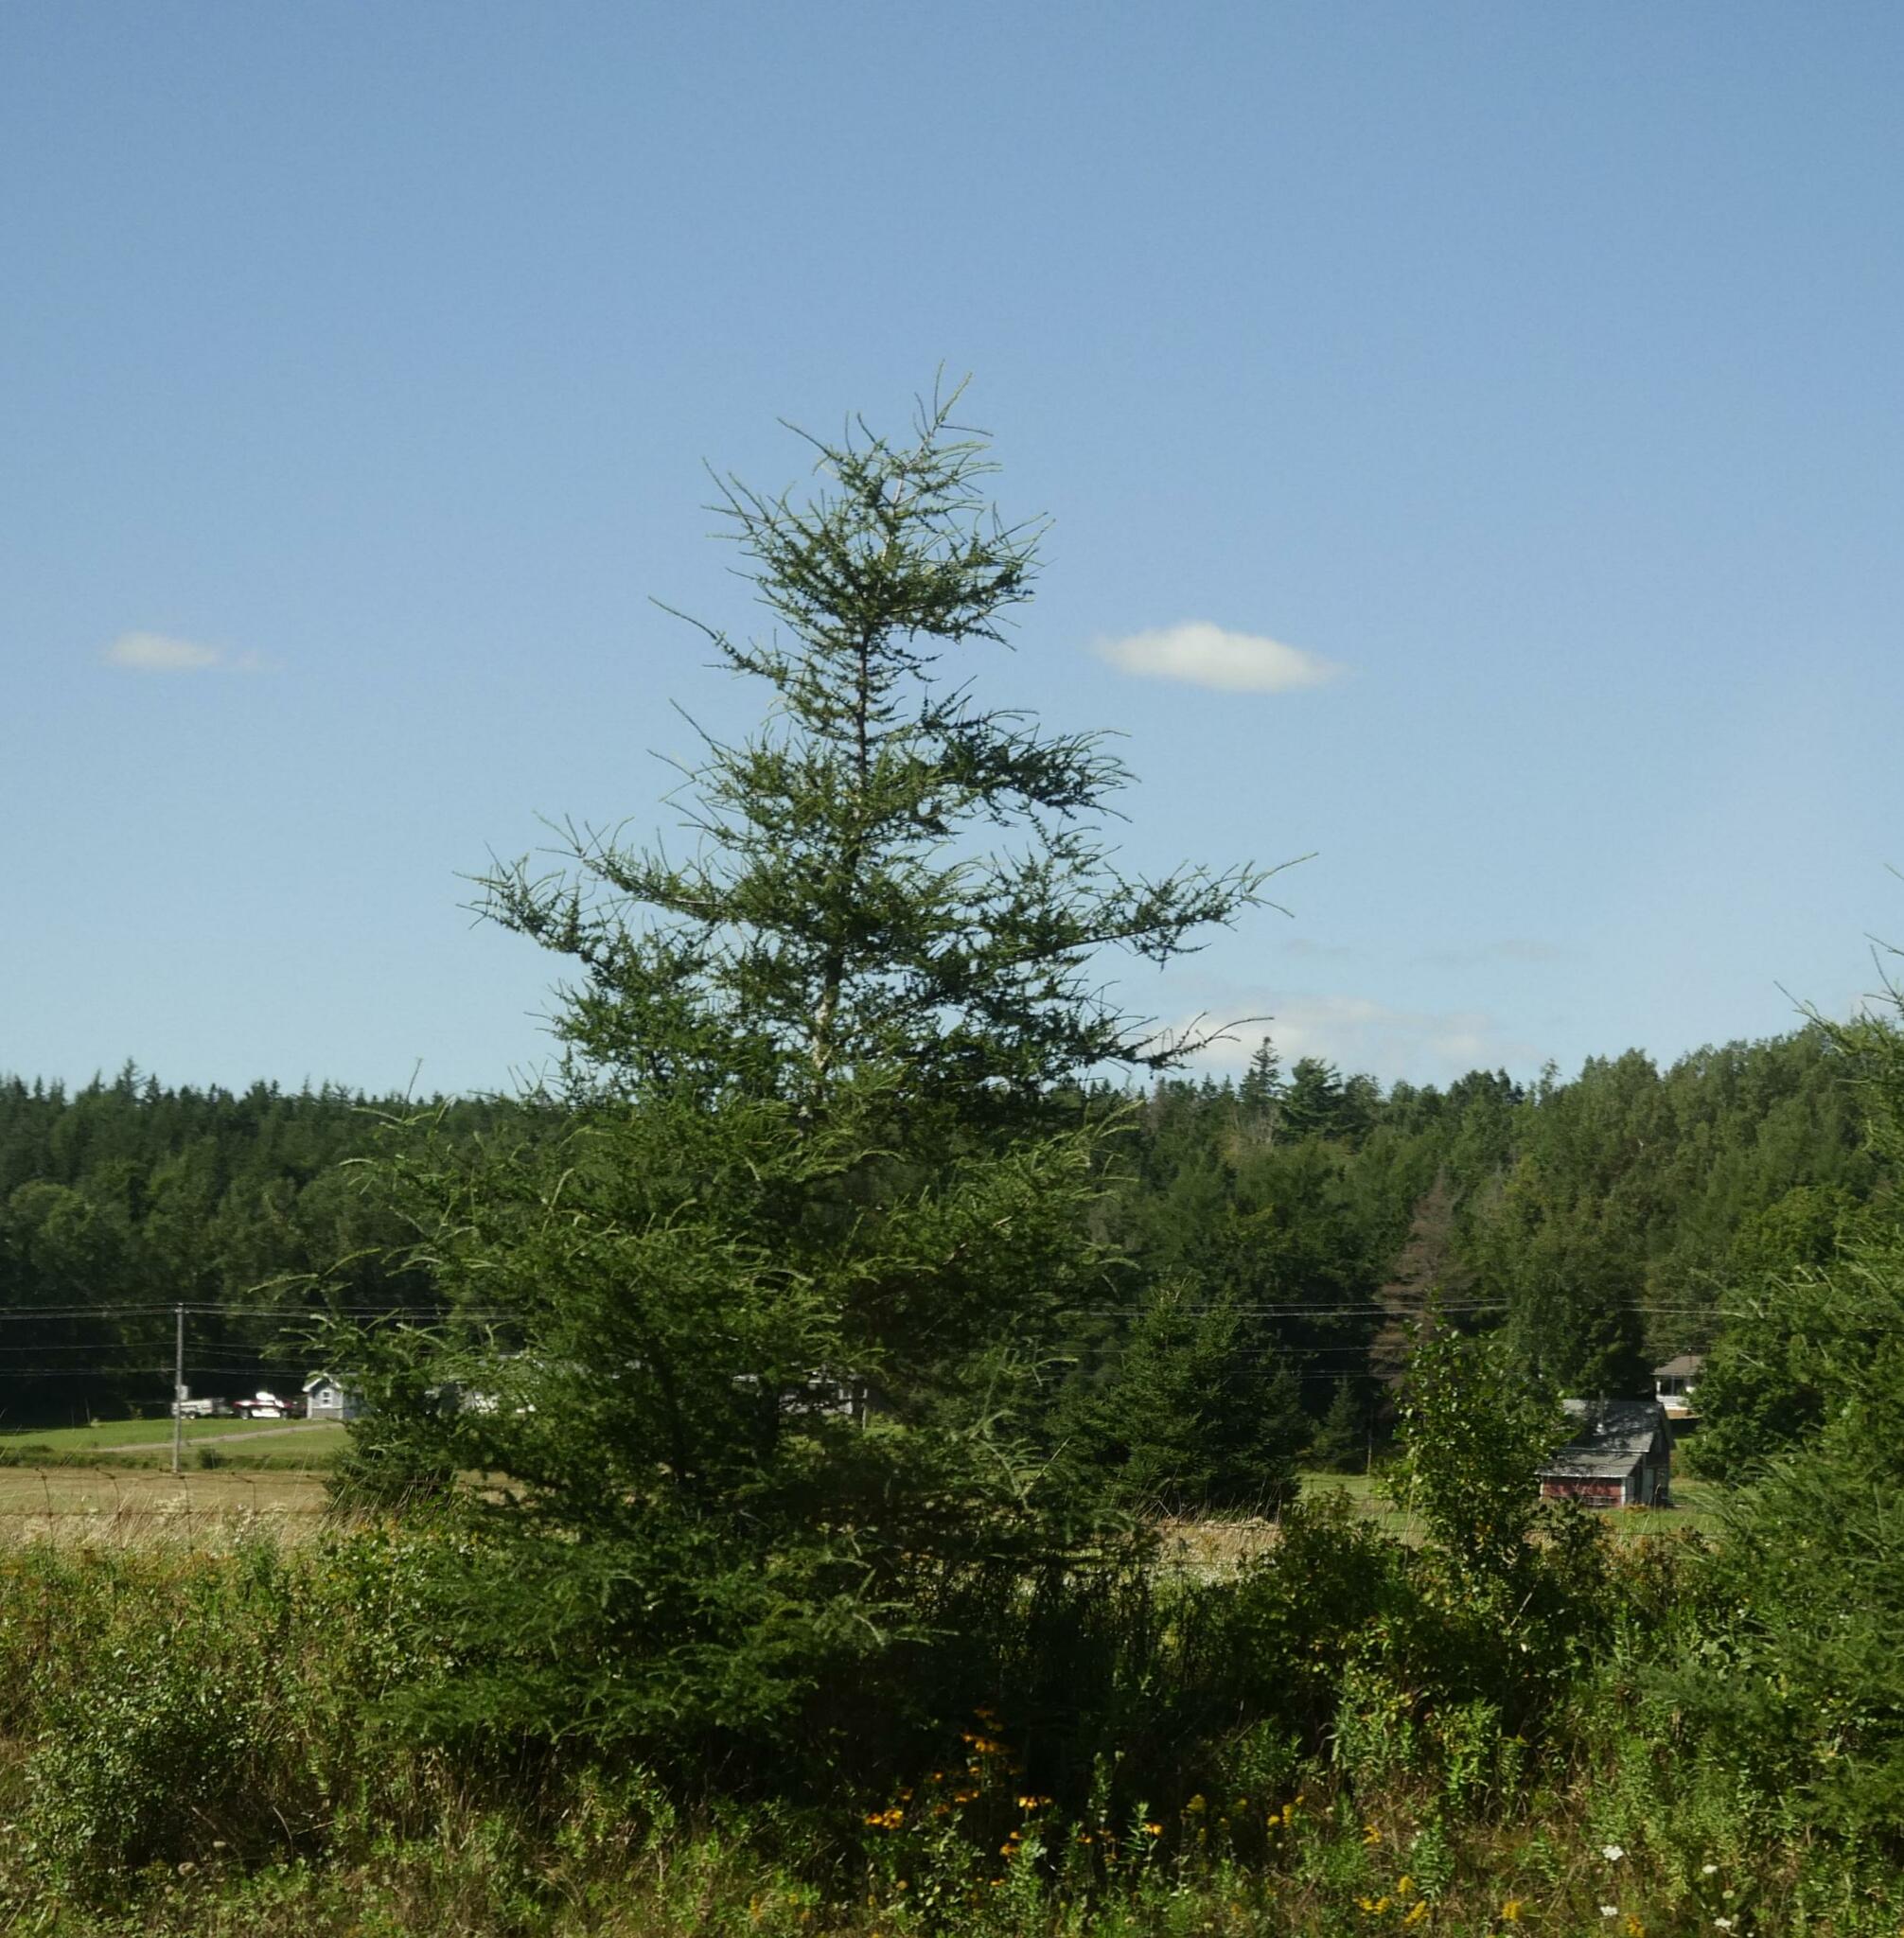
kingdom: Plantae
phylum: Tracheophyta
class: Pinopsida
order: Pinales
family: Pinaceae
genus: Larix
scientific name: Larix laricina
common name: American larch
